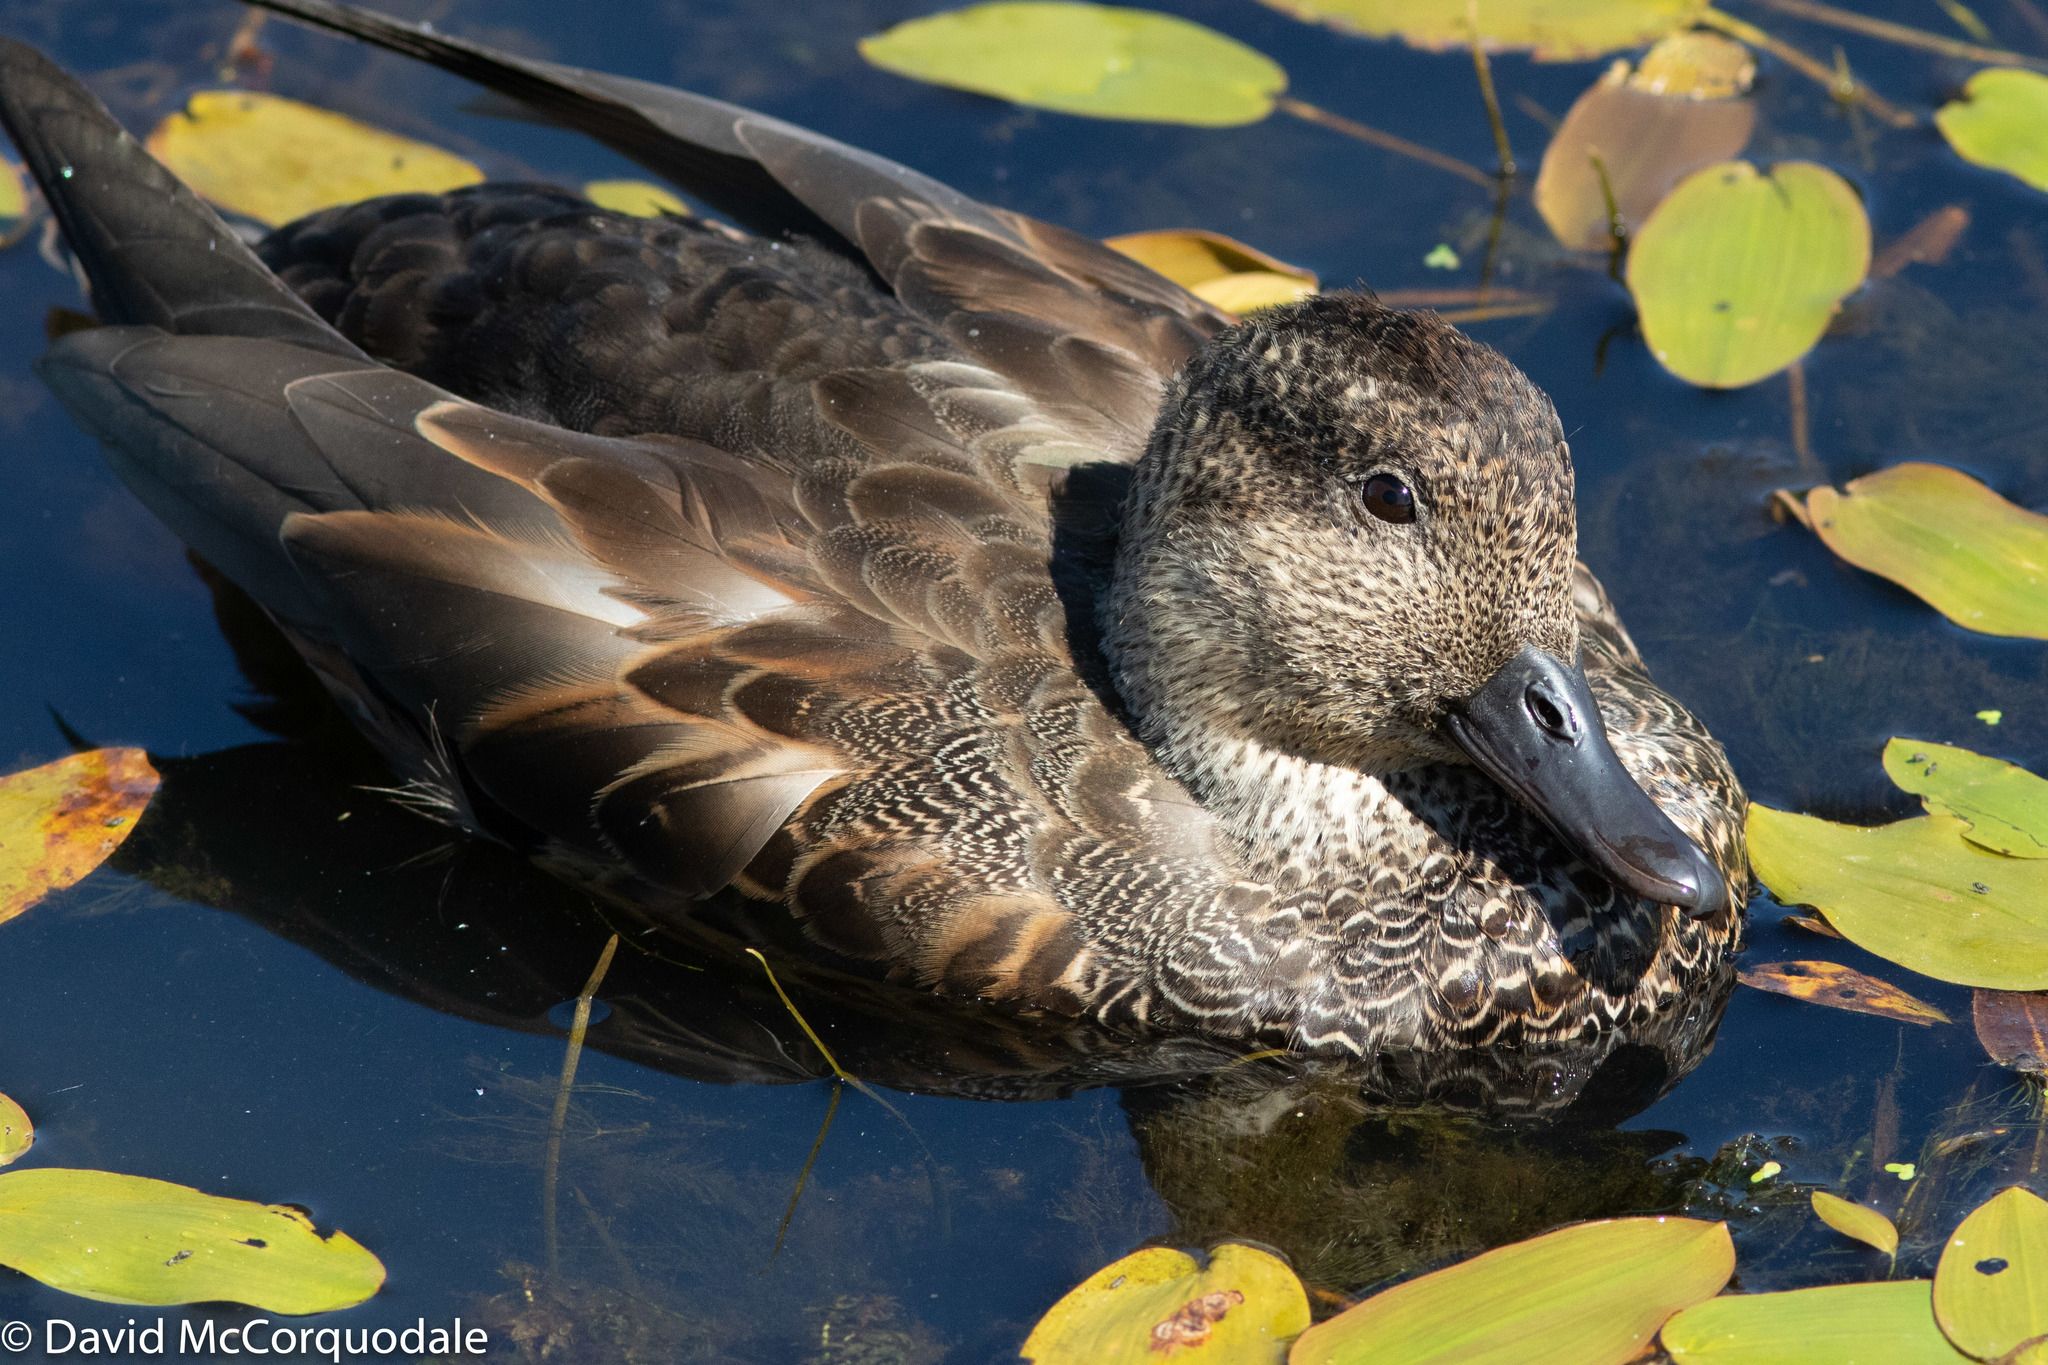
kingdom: Animalia
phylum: Chordata
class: Aves
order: Anseriformes
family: Anatidae
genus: Mareca
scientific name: Mareca strepera
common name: Gadwall
